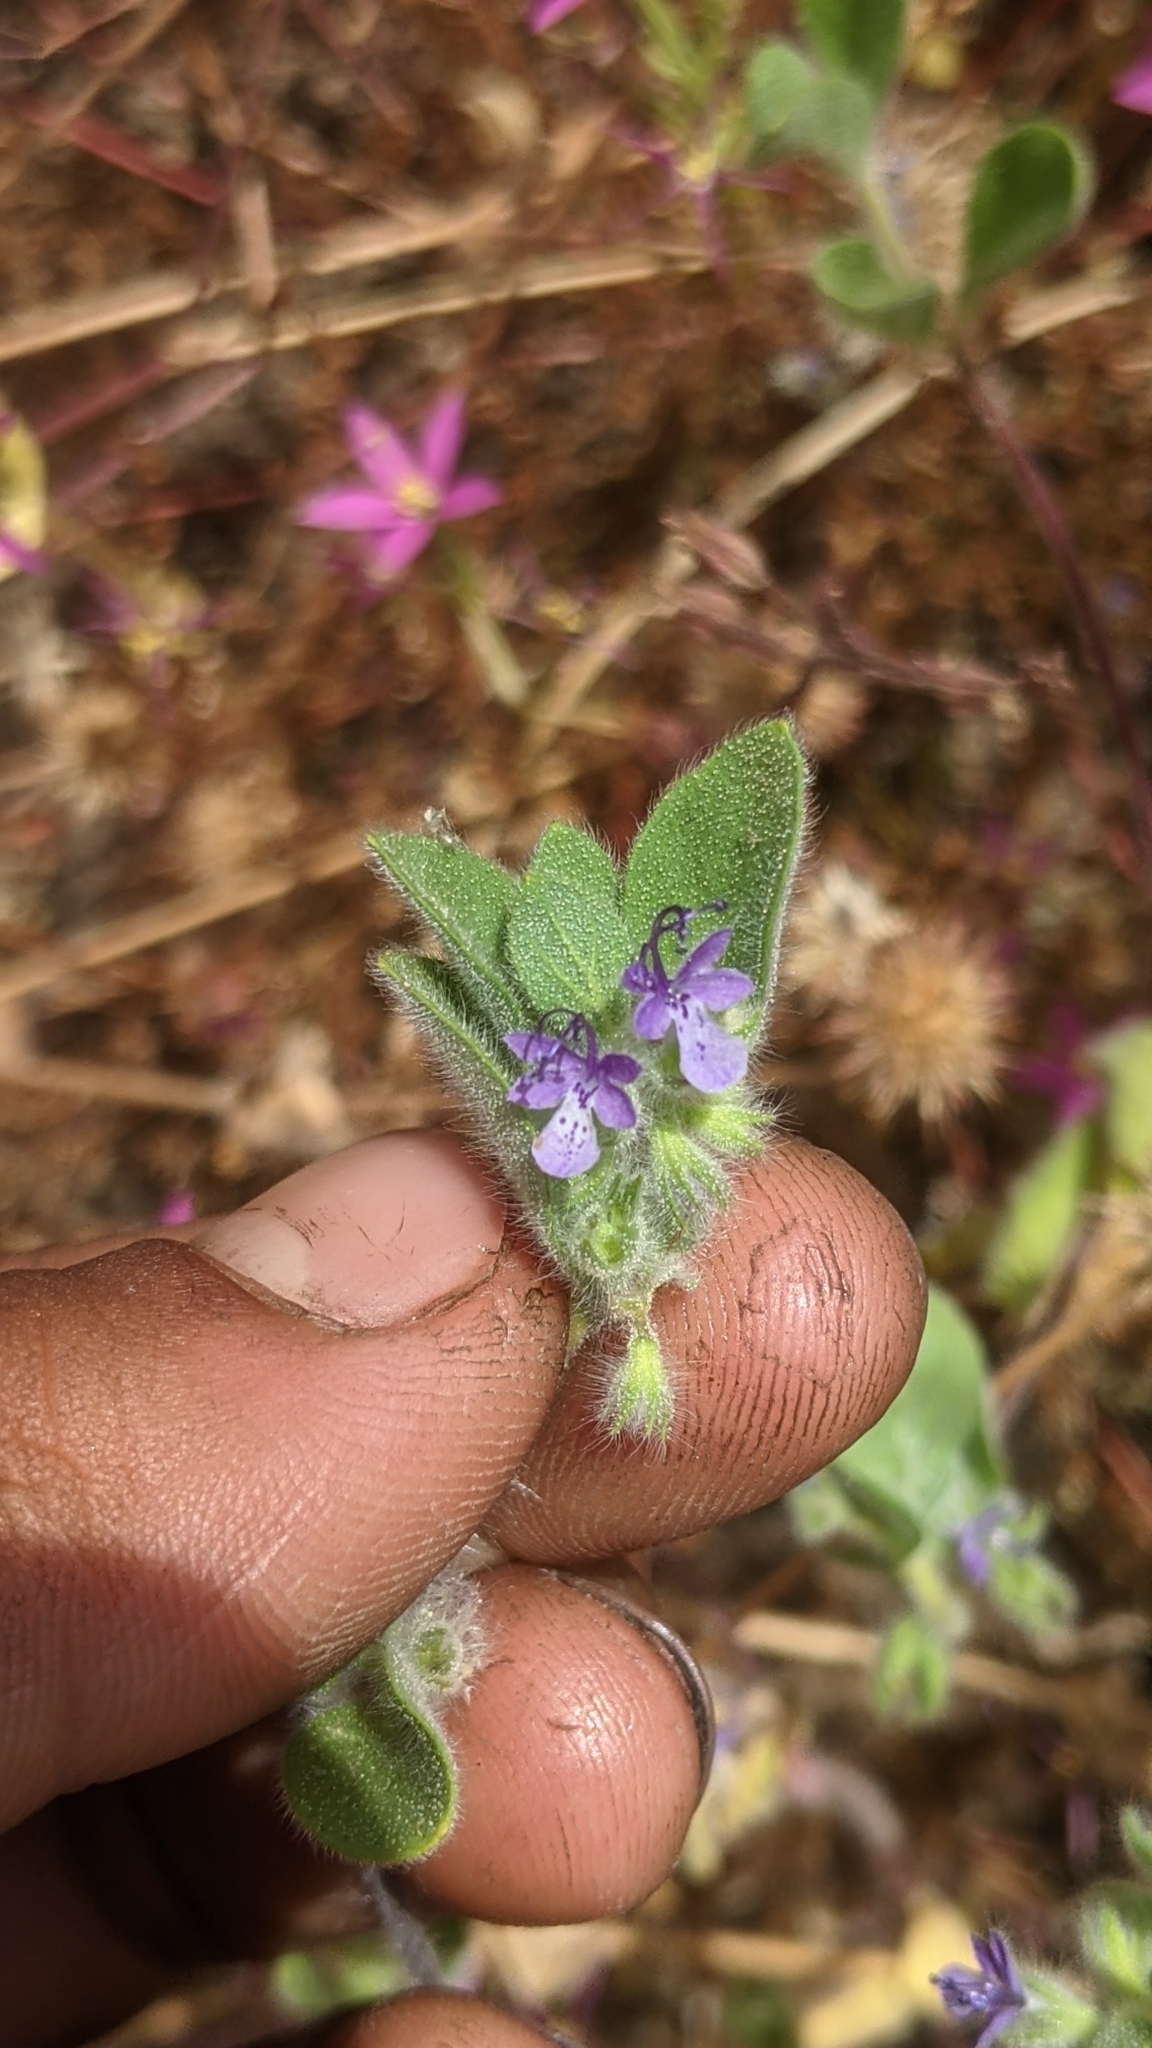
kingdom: Plantae
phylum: Tracheophyta
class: Magnoliopsida
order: Lamiales
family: Lamiaceae
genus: Trichostema
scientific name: Trichostema oblongum
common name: Mountain bluecurls
